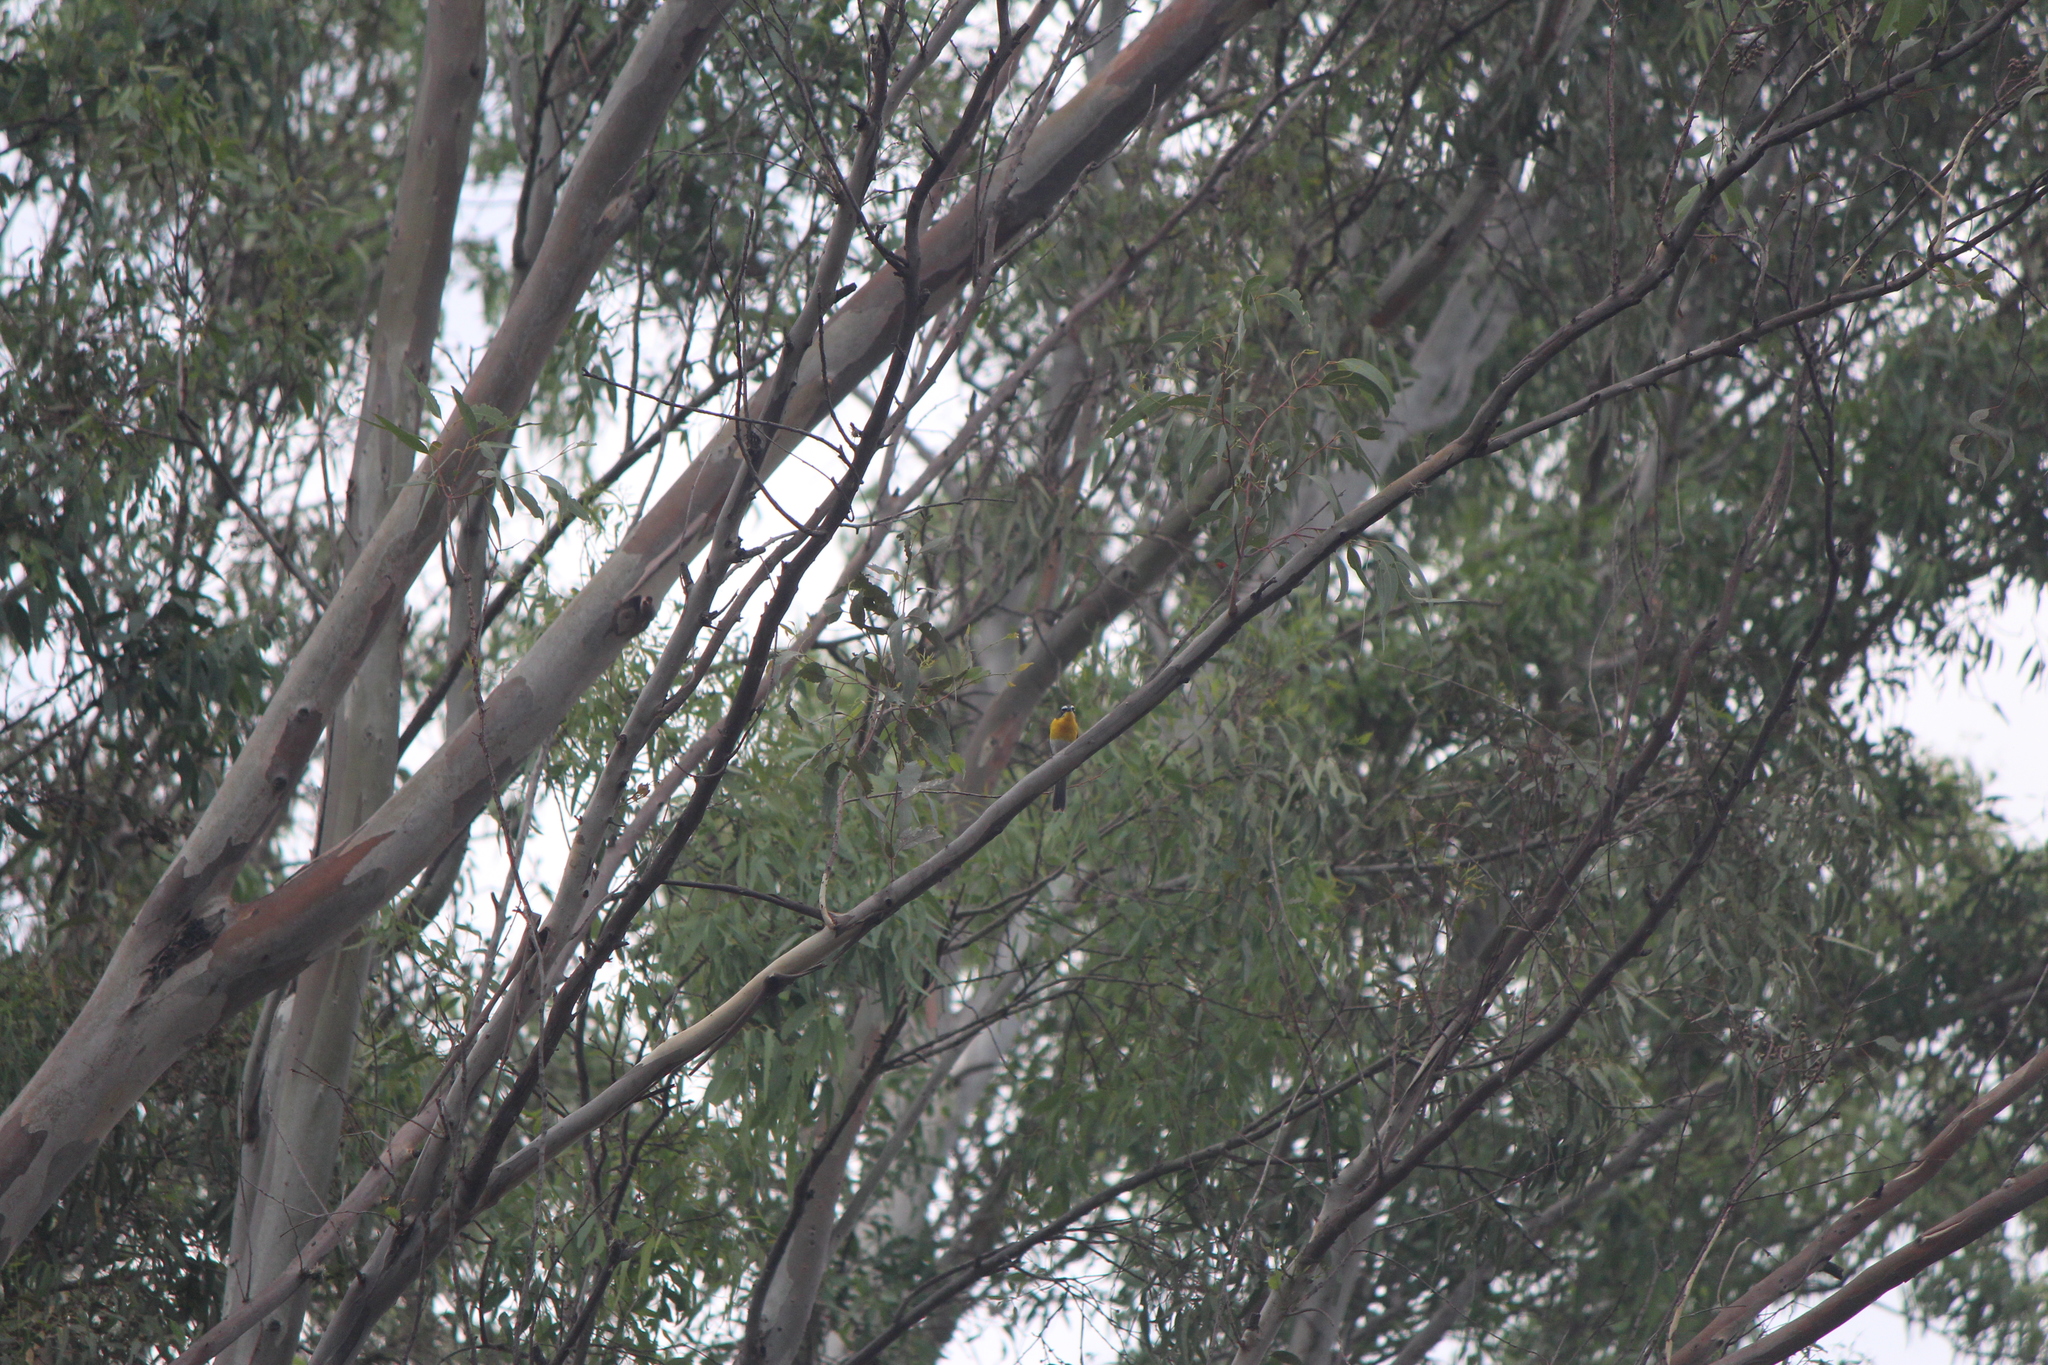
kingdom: Animalia
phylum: Chordata
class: Aves
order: Passeriformes
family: Parulidae
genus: Icteria
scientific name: Icteria virens
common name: Yellow-breasted chat
